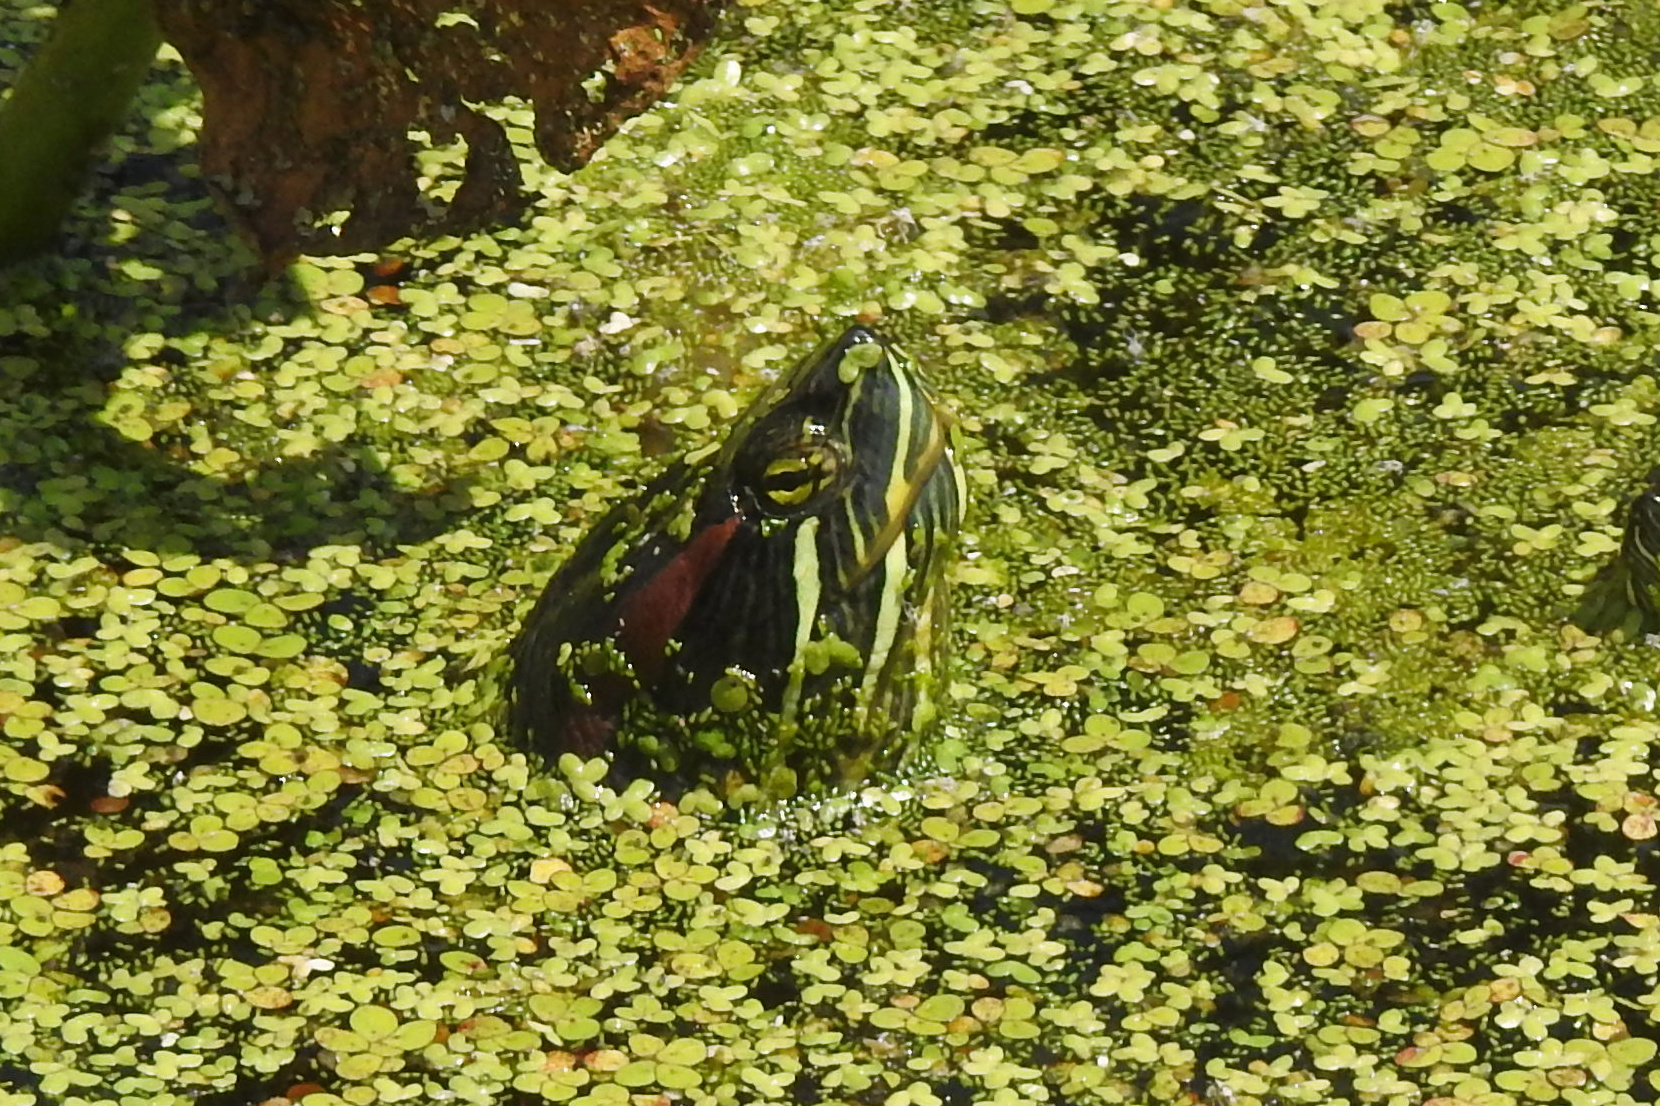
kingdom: Animalia
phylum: Chordata
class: Testudines
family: Emydidae
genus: Trachemys
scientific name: Trachemys scripta
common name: Slider
